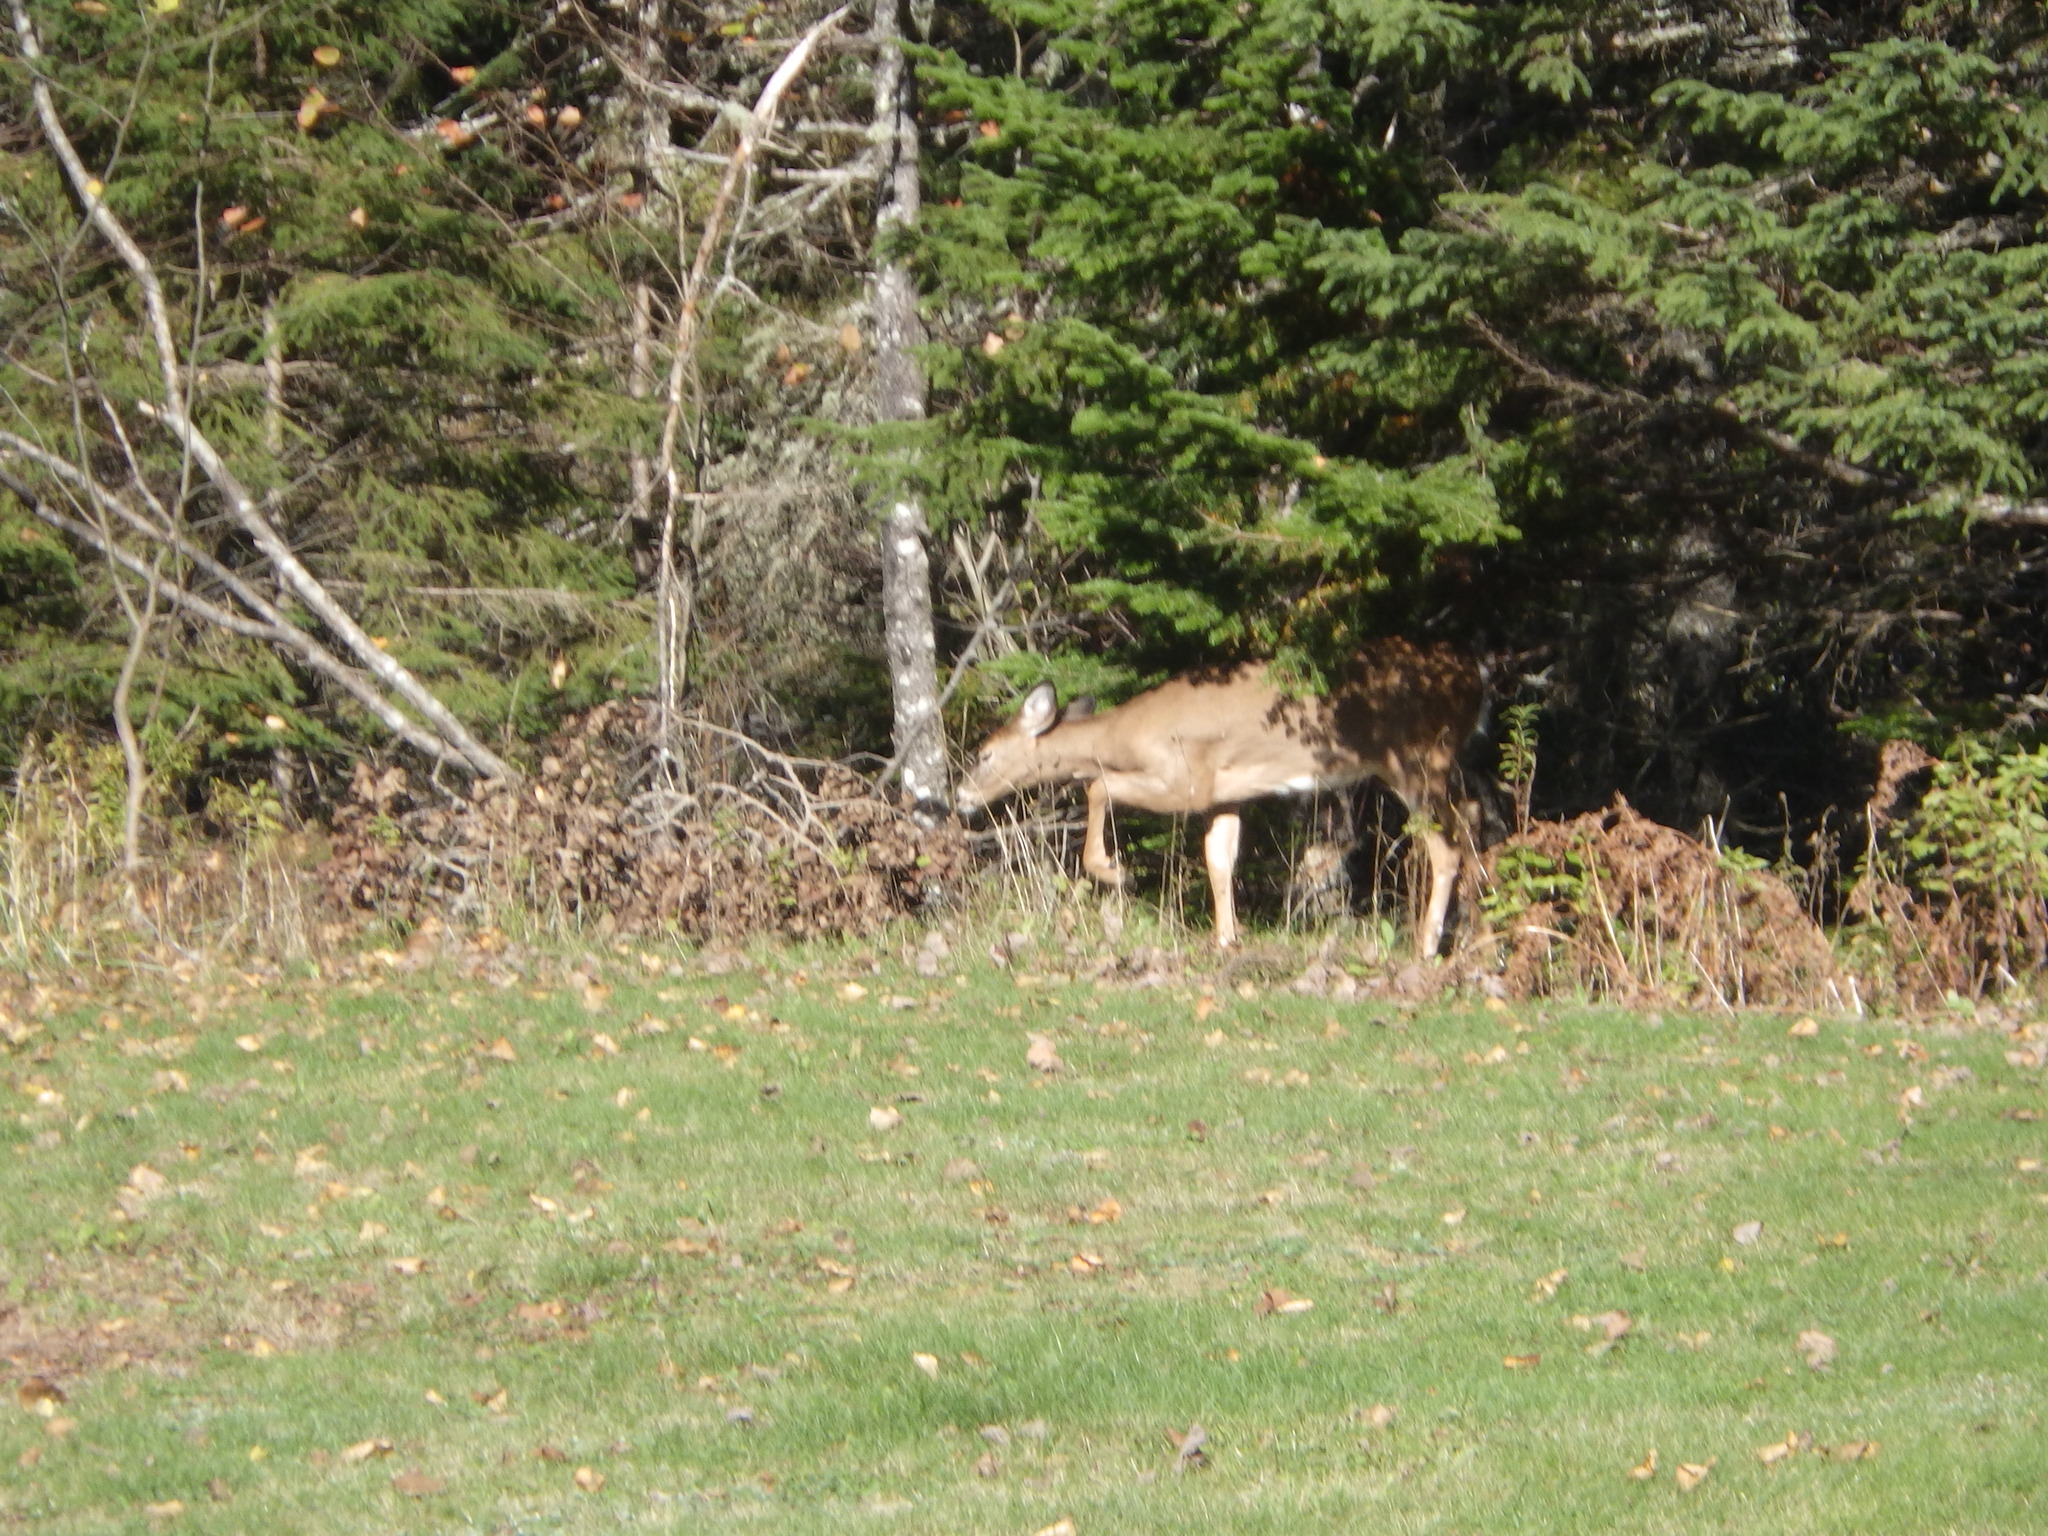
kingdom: Animalia
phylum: Chordata
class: Mammalia
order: Artiodactyla
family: Cervidae
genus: Odocoileus
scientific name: Odocoileus virginianus
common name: White-tailed deer
